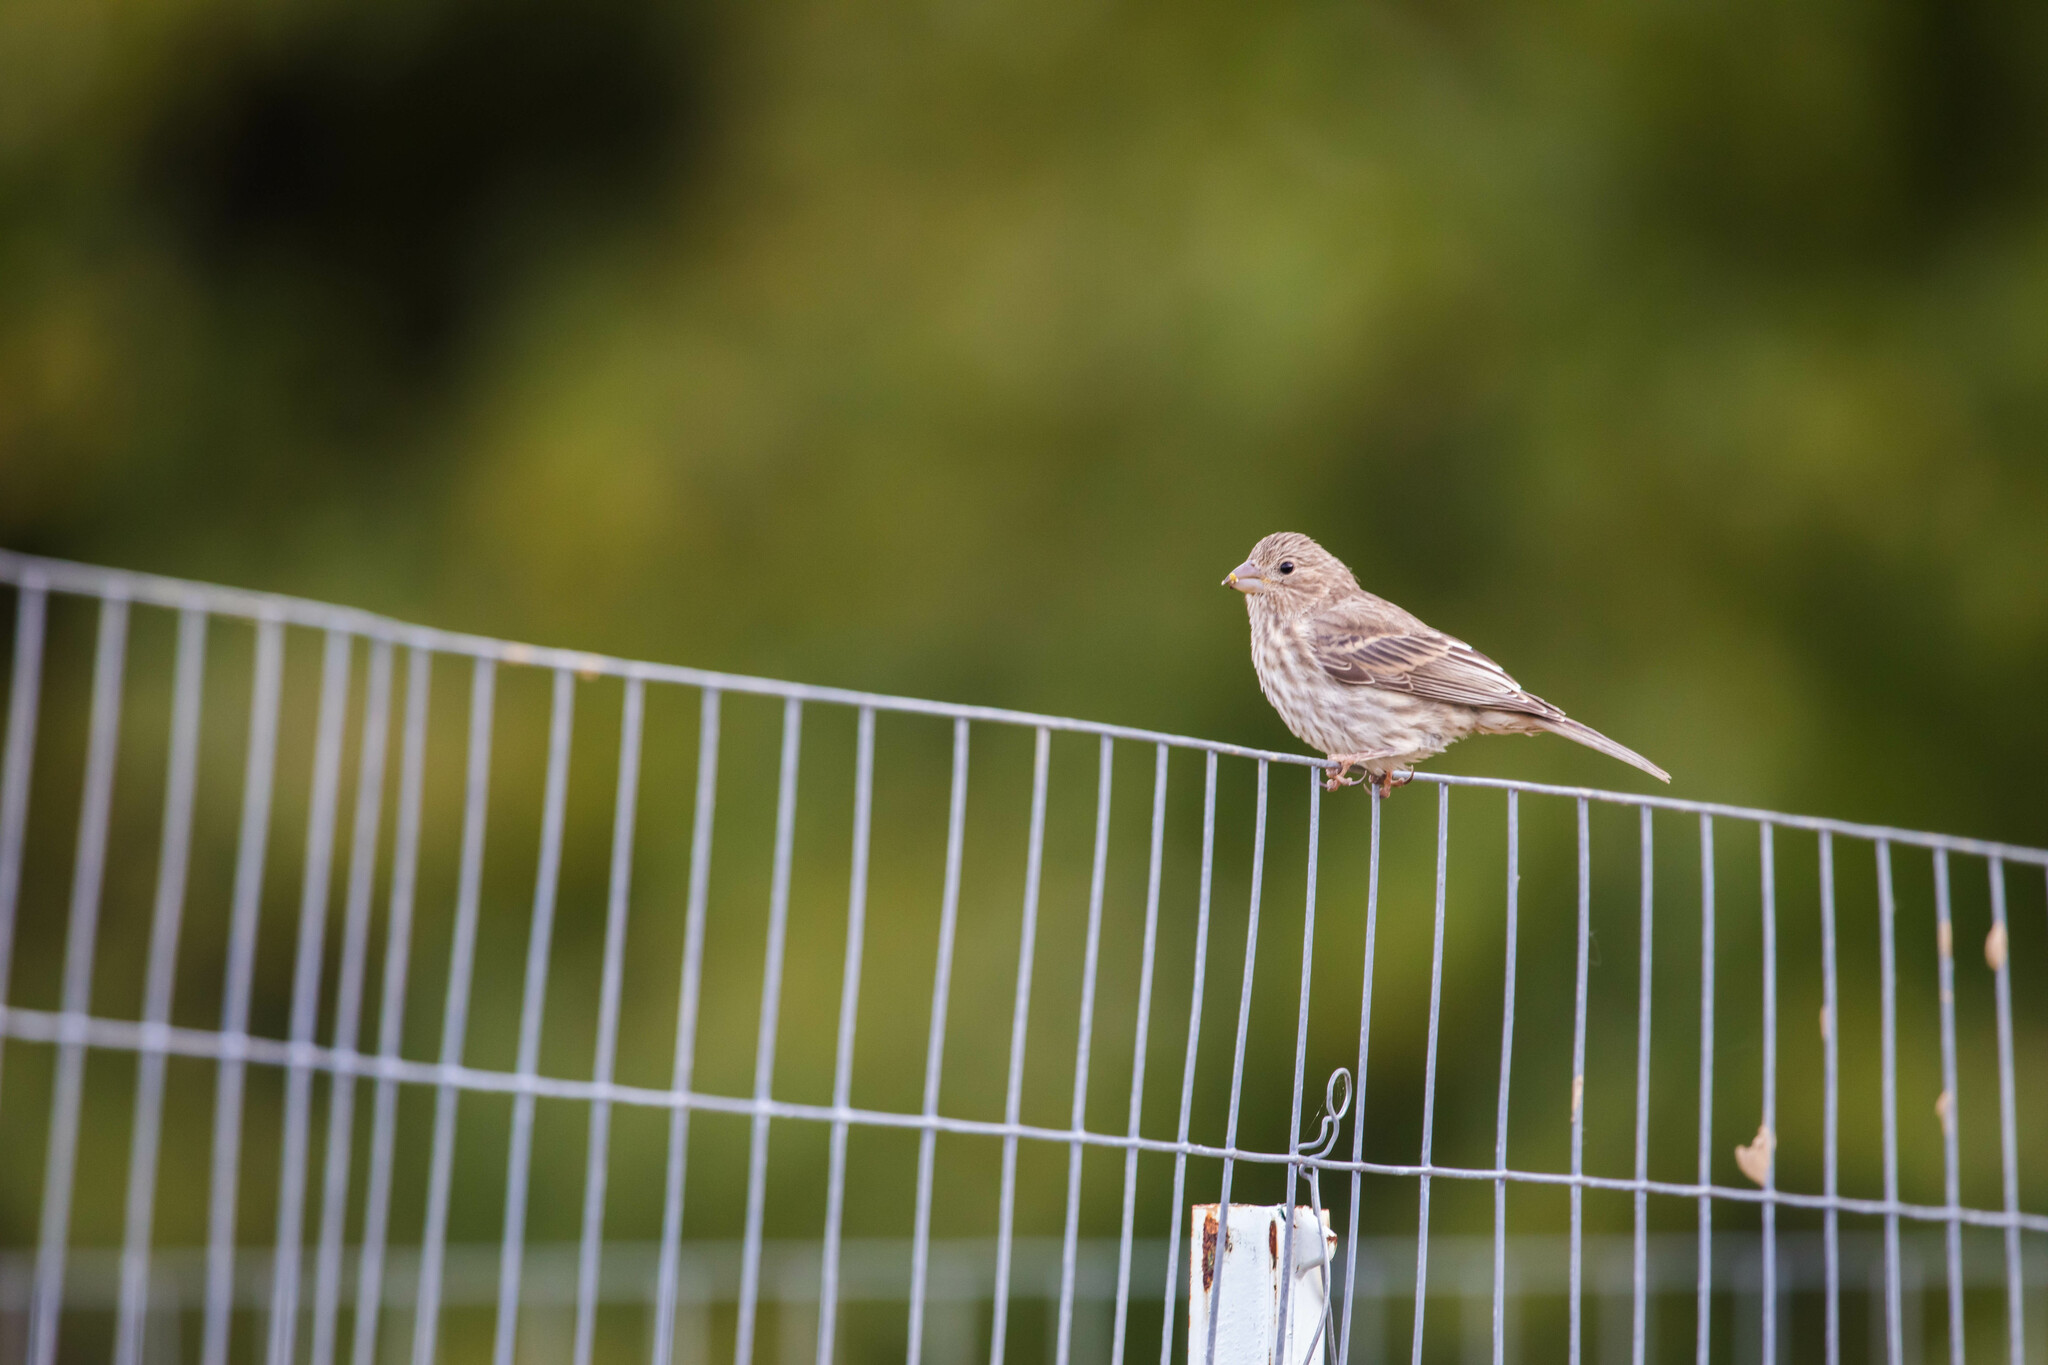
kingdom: Animalia
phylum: Chordata
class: Aves
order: Passeriformes
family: Fringillidae
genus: Haemorhous
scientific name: Haemorhous mexicanus
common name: House finch
